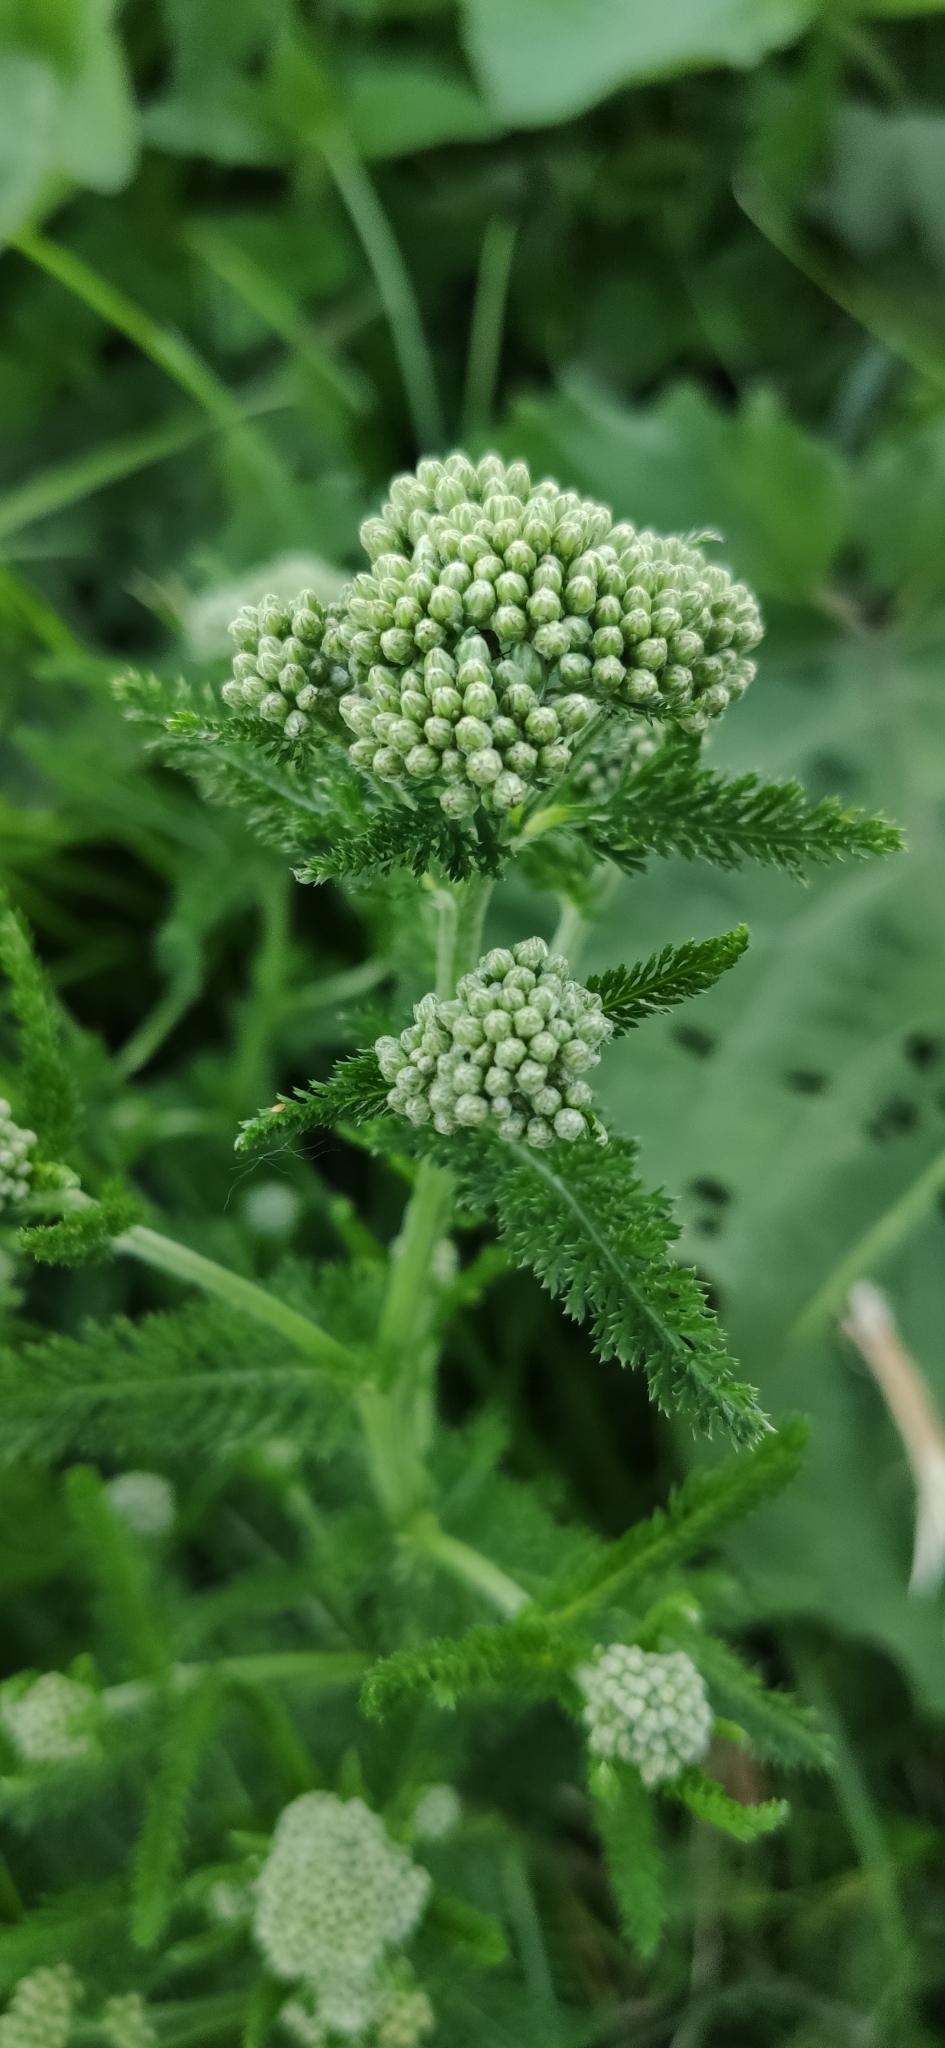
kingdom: Plantae
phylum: Tracheophyta
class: Magnoliopsida
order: Asterales
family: Asteraceae
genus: Achillea
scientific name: Achillea millefolium
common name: Yarrow
